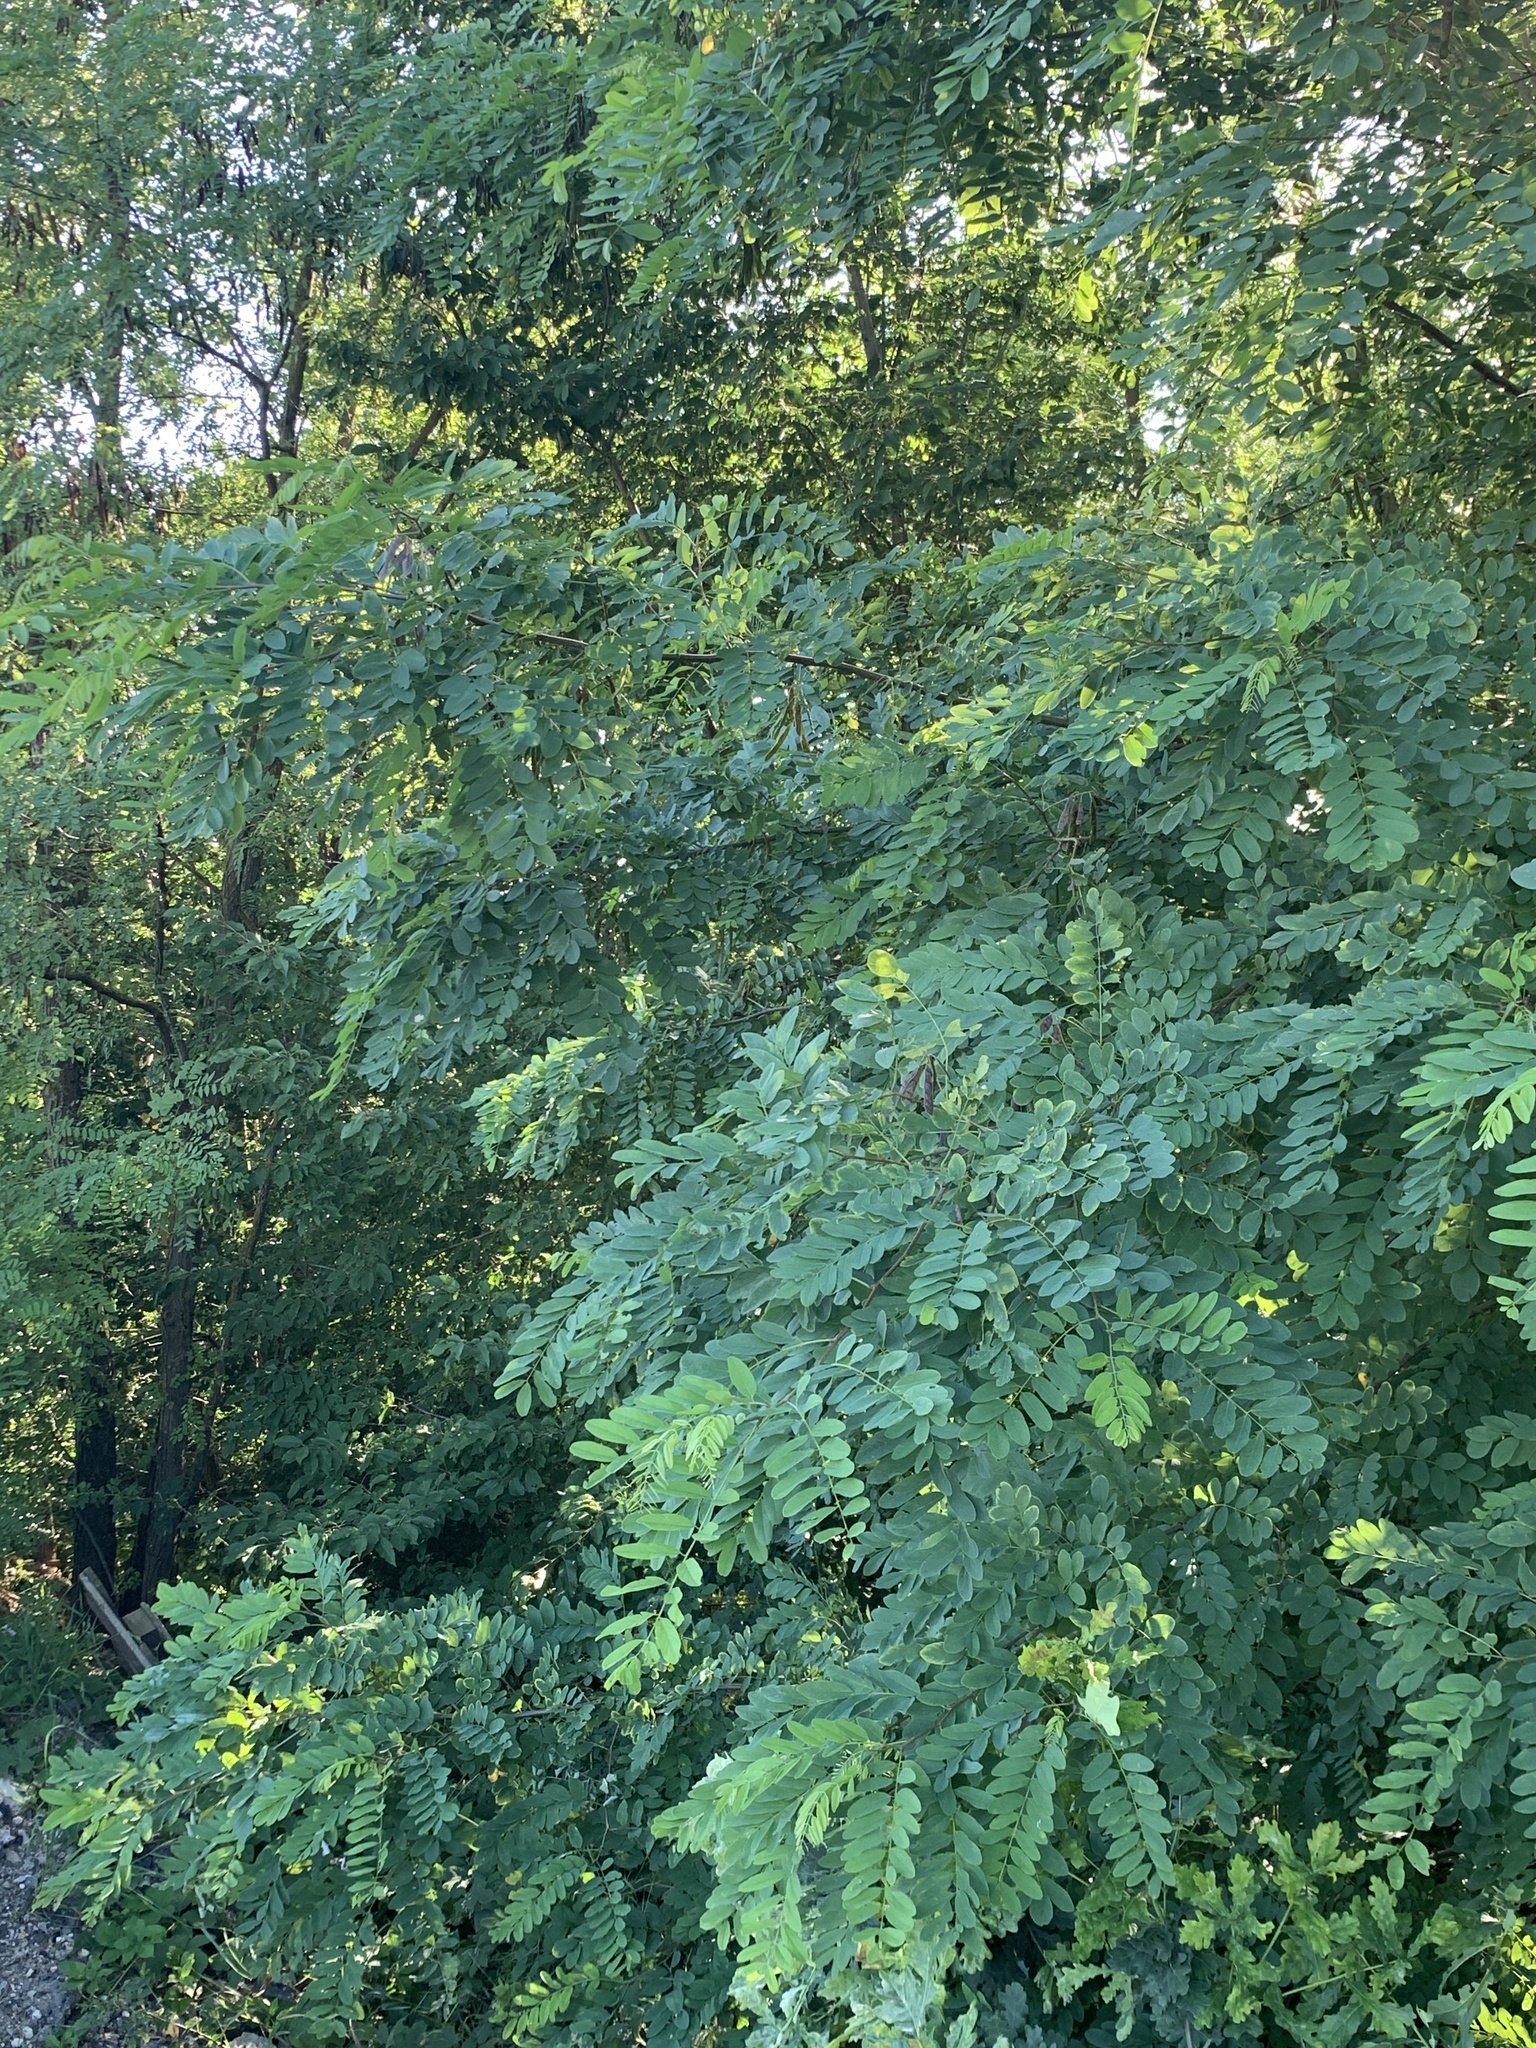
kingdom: Plantae
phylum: Tracheophyta
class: Magnoliopsida
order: Fabales
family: Fabaceae
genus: Robinia
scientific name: Robinia pseudoacacia
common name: Black locust
